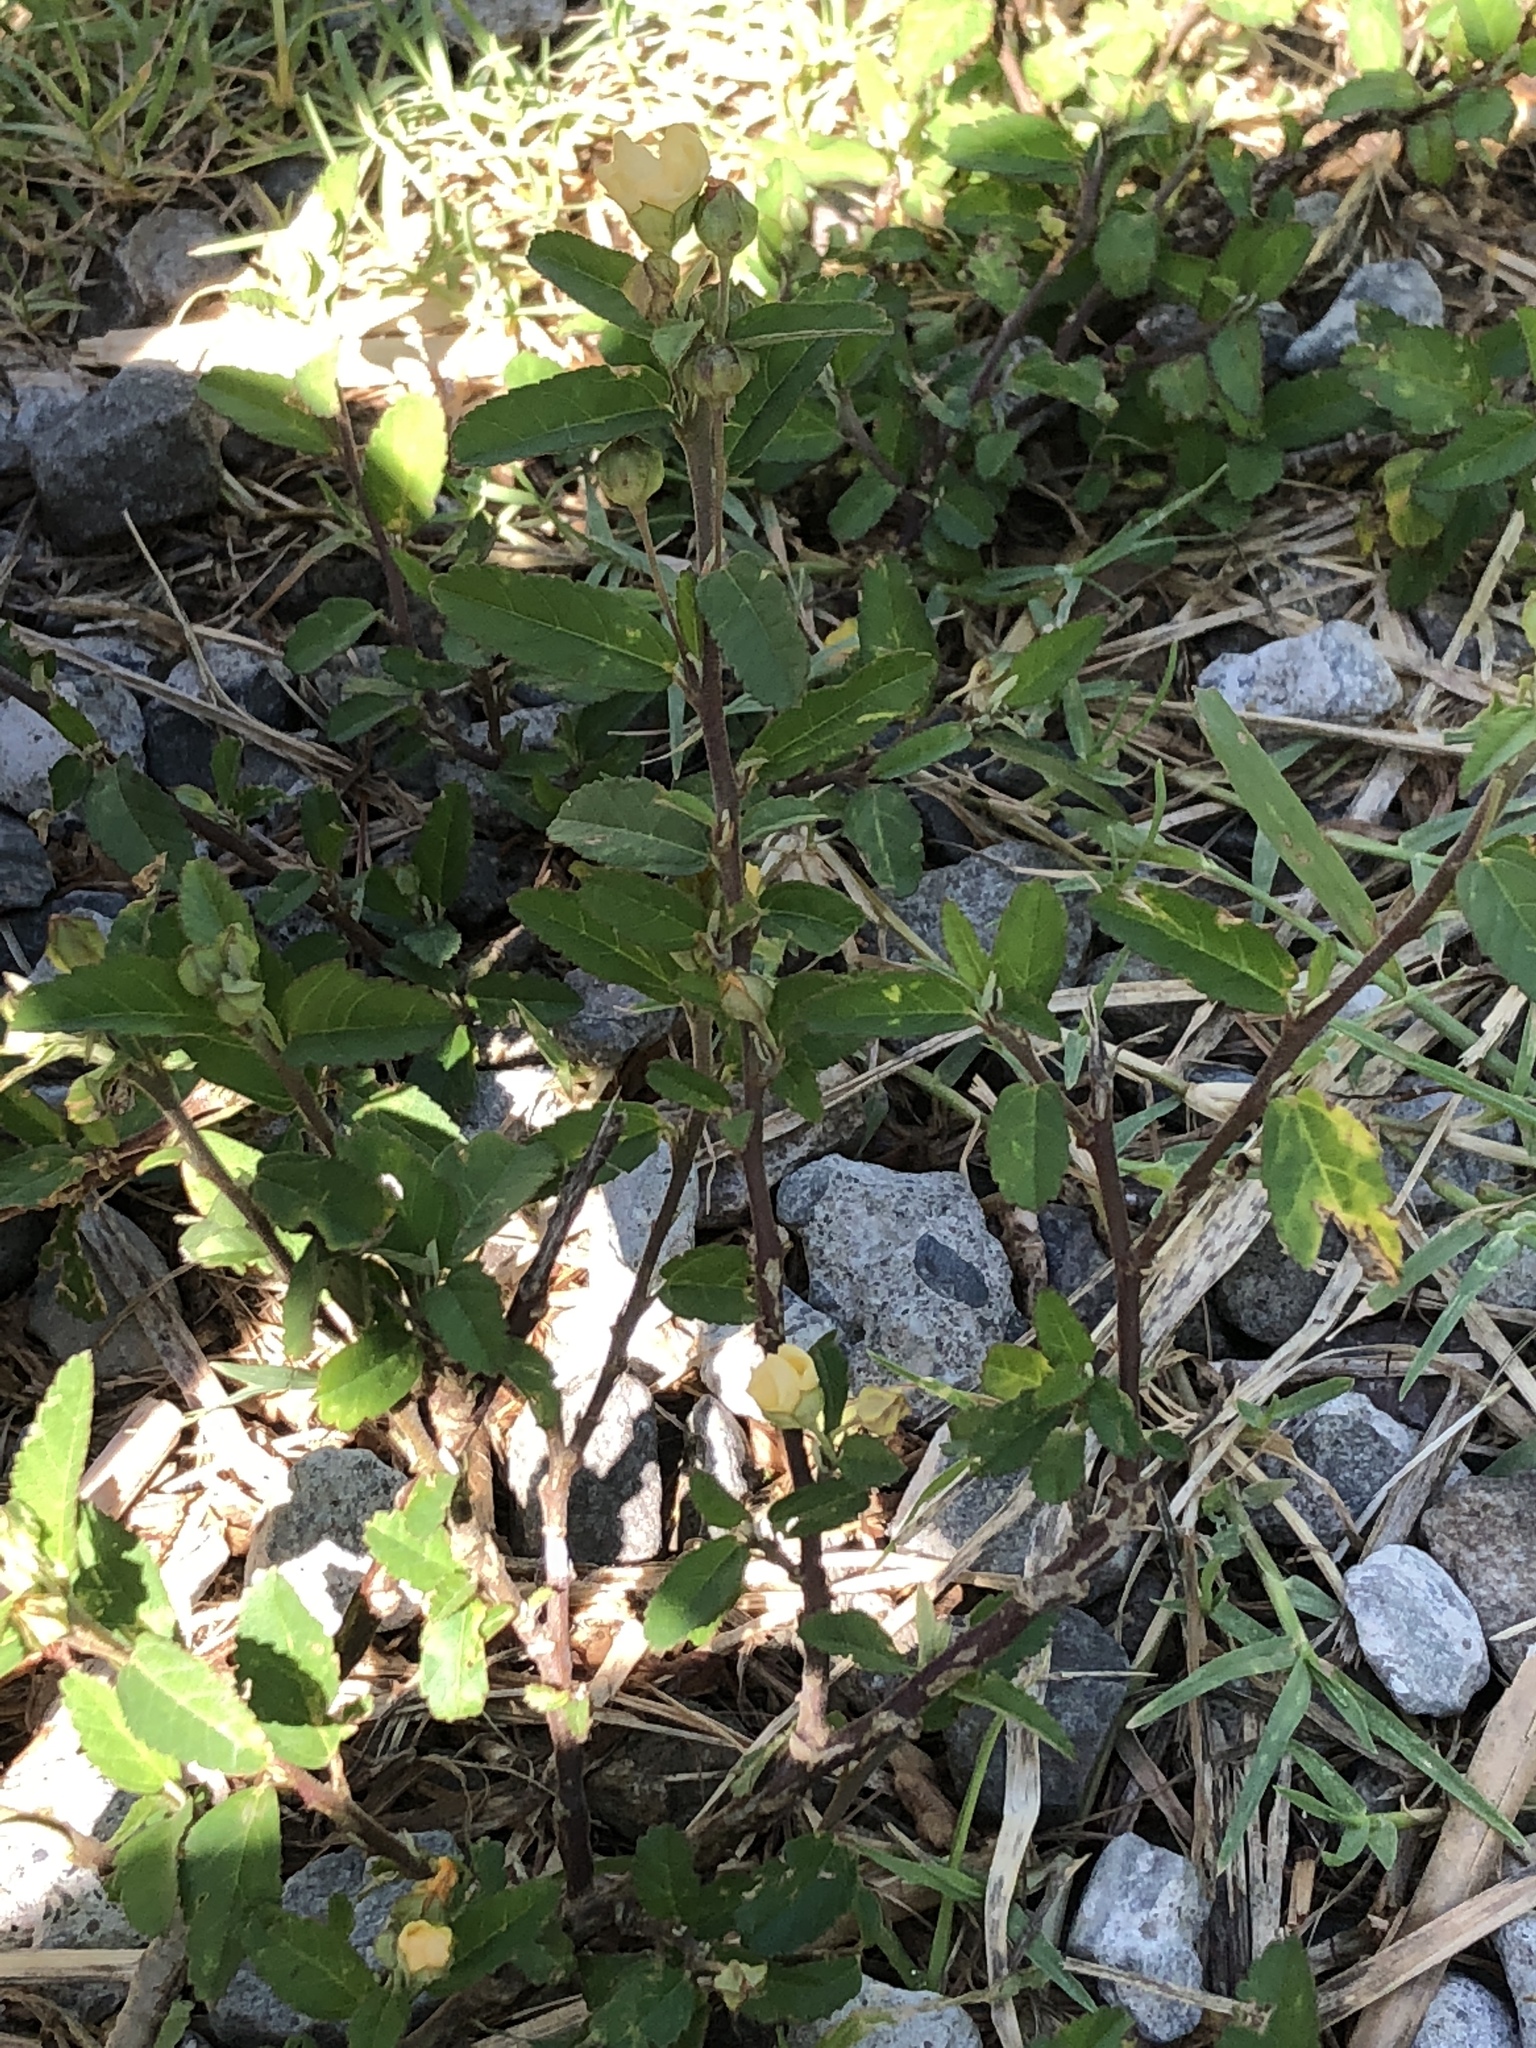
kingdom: Plantae
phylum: Tracheophyta
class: Magnoliopsida
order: Malvales
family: Malvaceae
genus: Sida
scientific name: Sida rhombifolia
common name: Queensland-hemp
